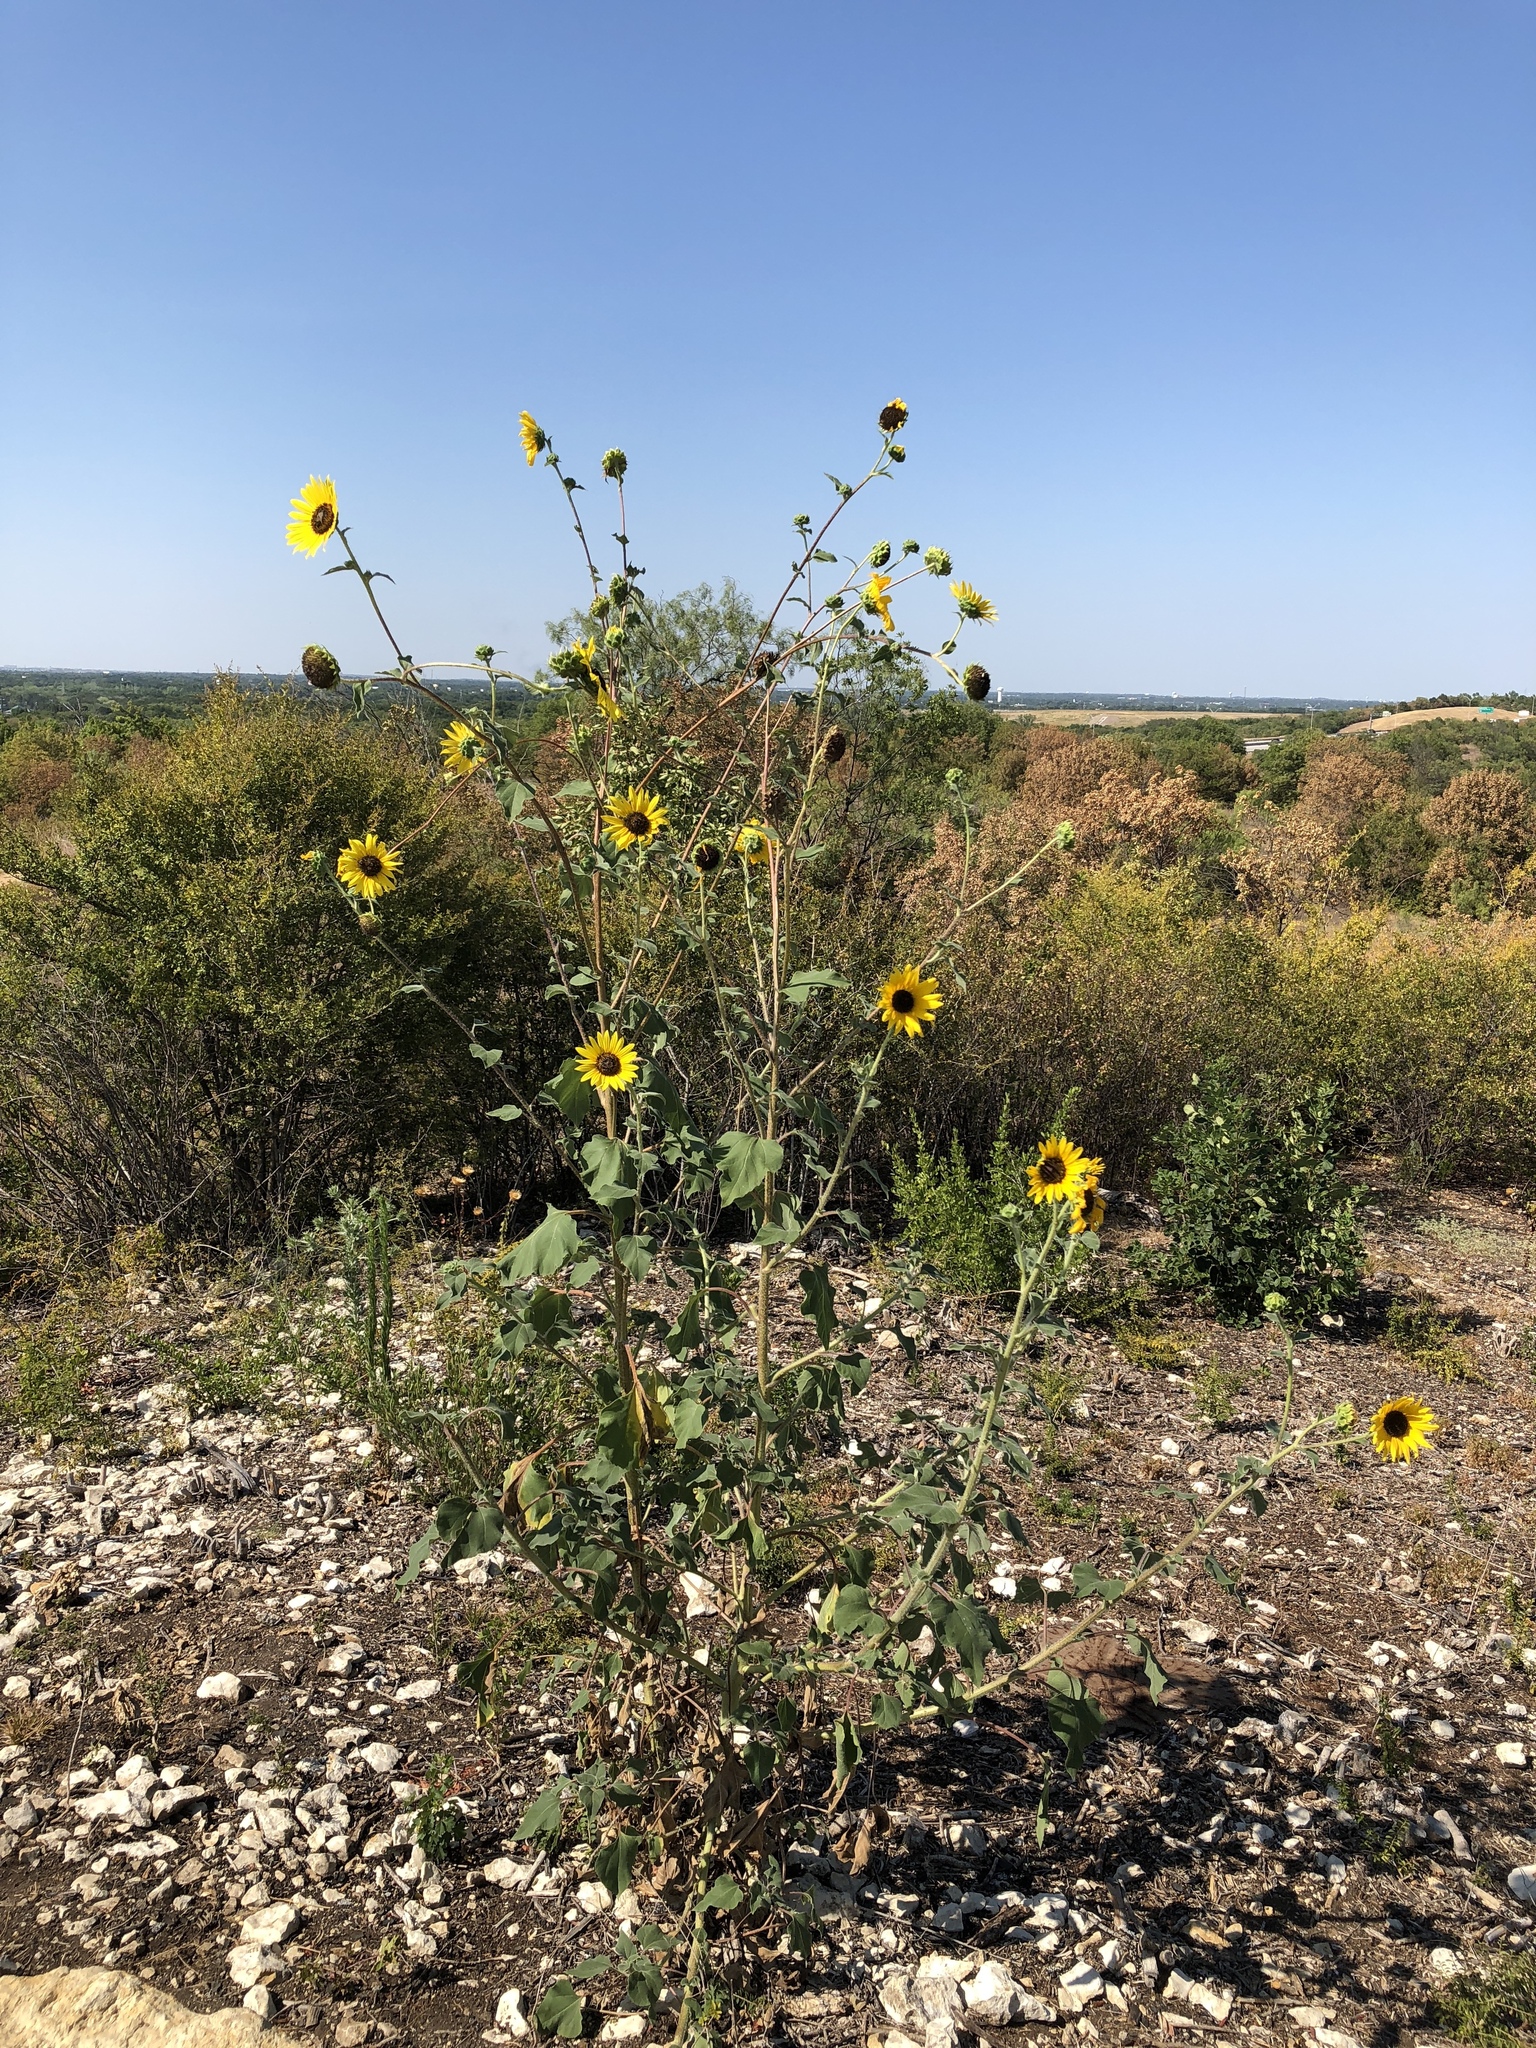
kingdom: Plantae
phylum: Tracheophyta
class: Magnoliopsida
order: Asterales
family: Asteraceae
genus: Helianthus
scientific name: Helianthus annuus
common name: Sunflower
